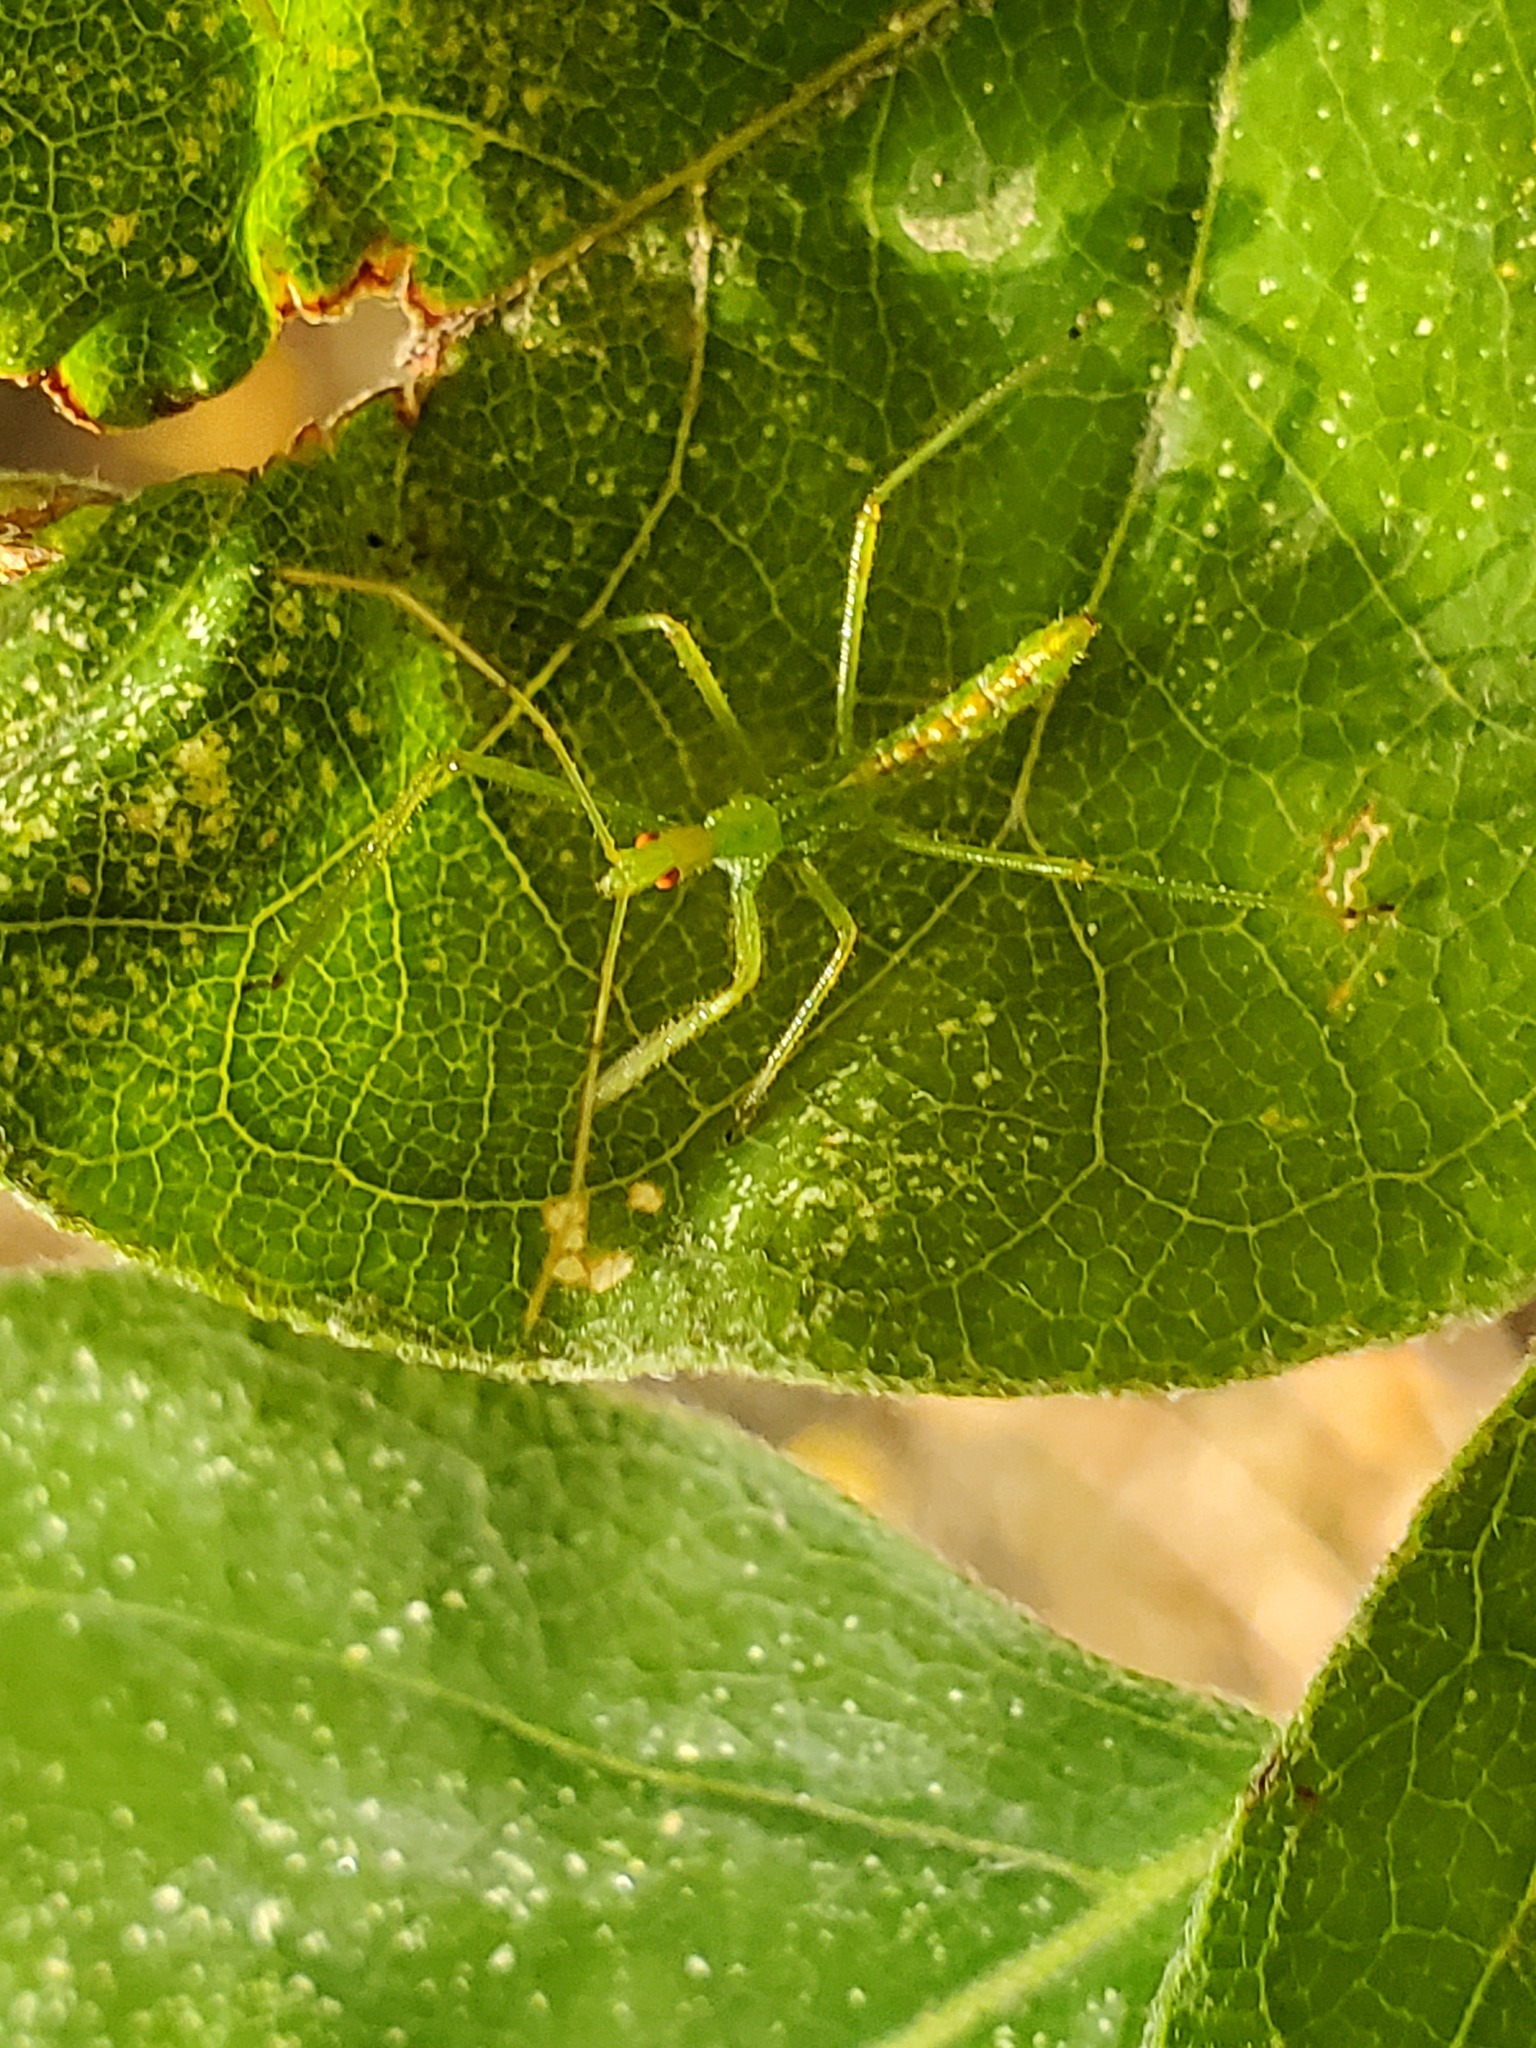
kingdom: Animalia
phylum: Arthropoda
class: Insecta
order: Hemiptera
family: Reduviidae
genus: Zelus
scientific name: Zelus luridus
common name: Pale green assassin bug
